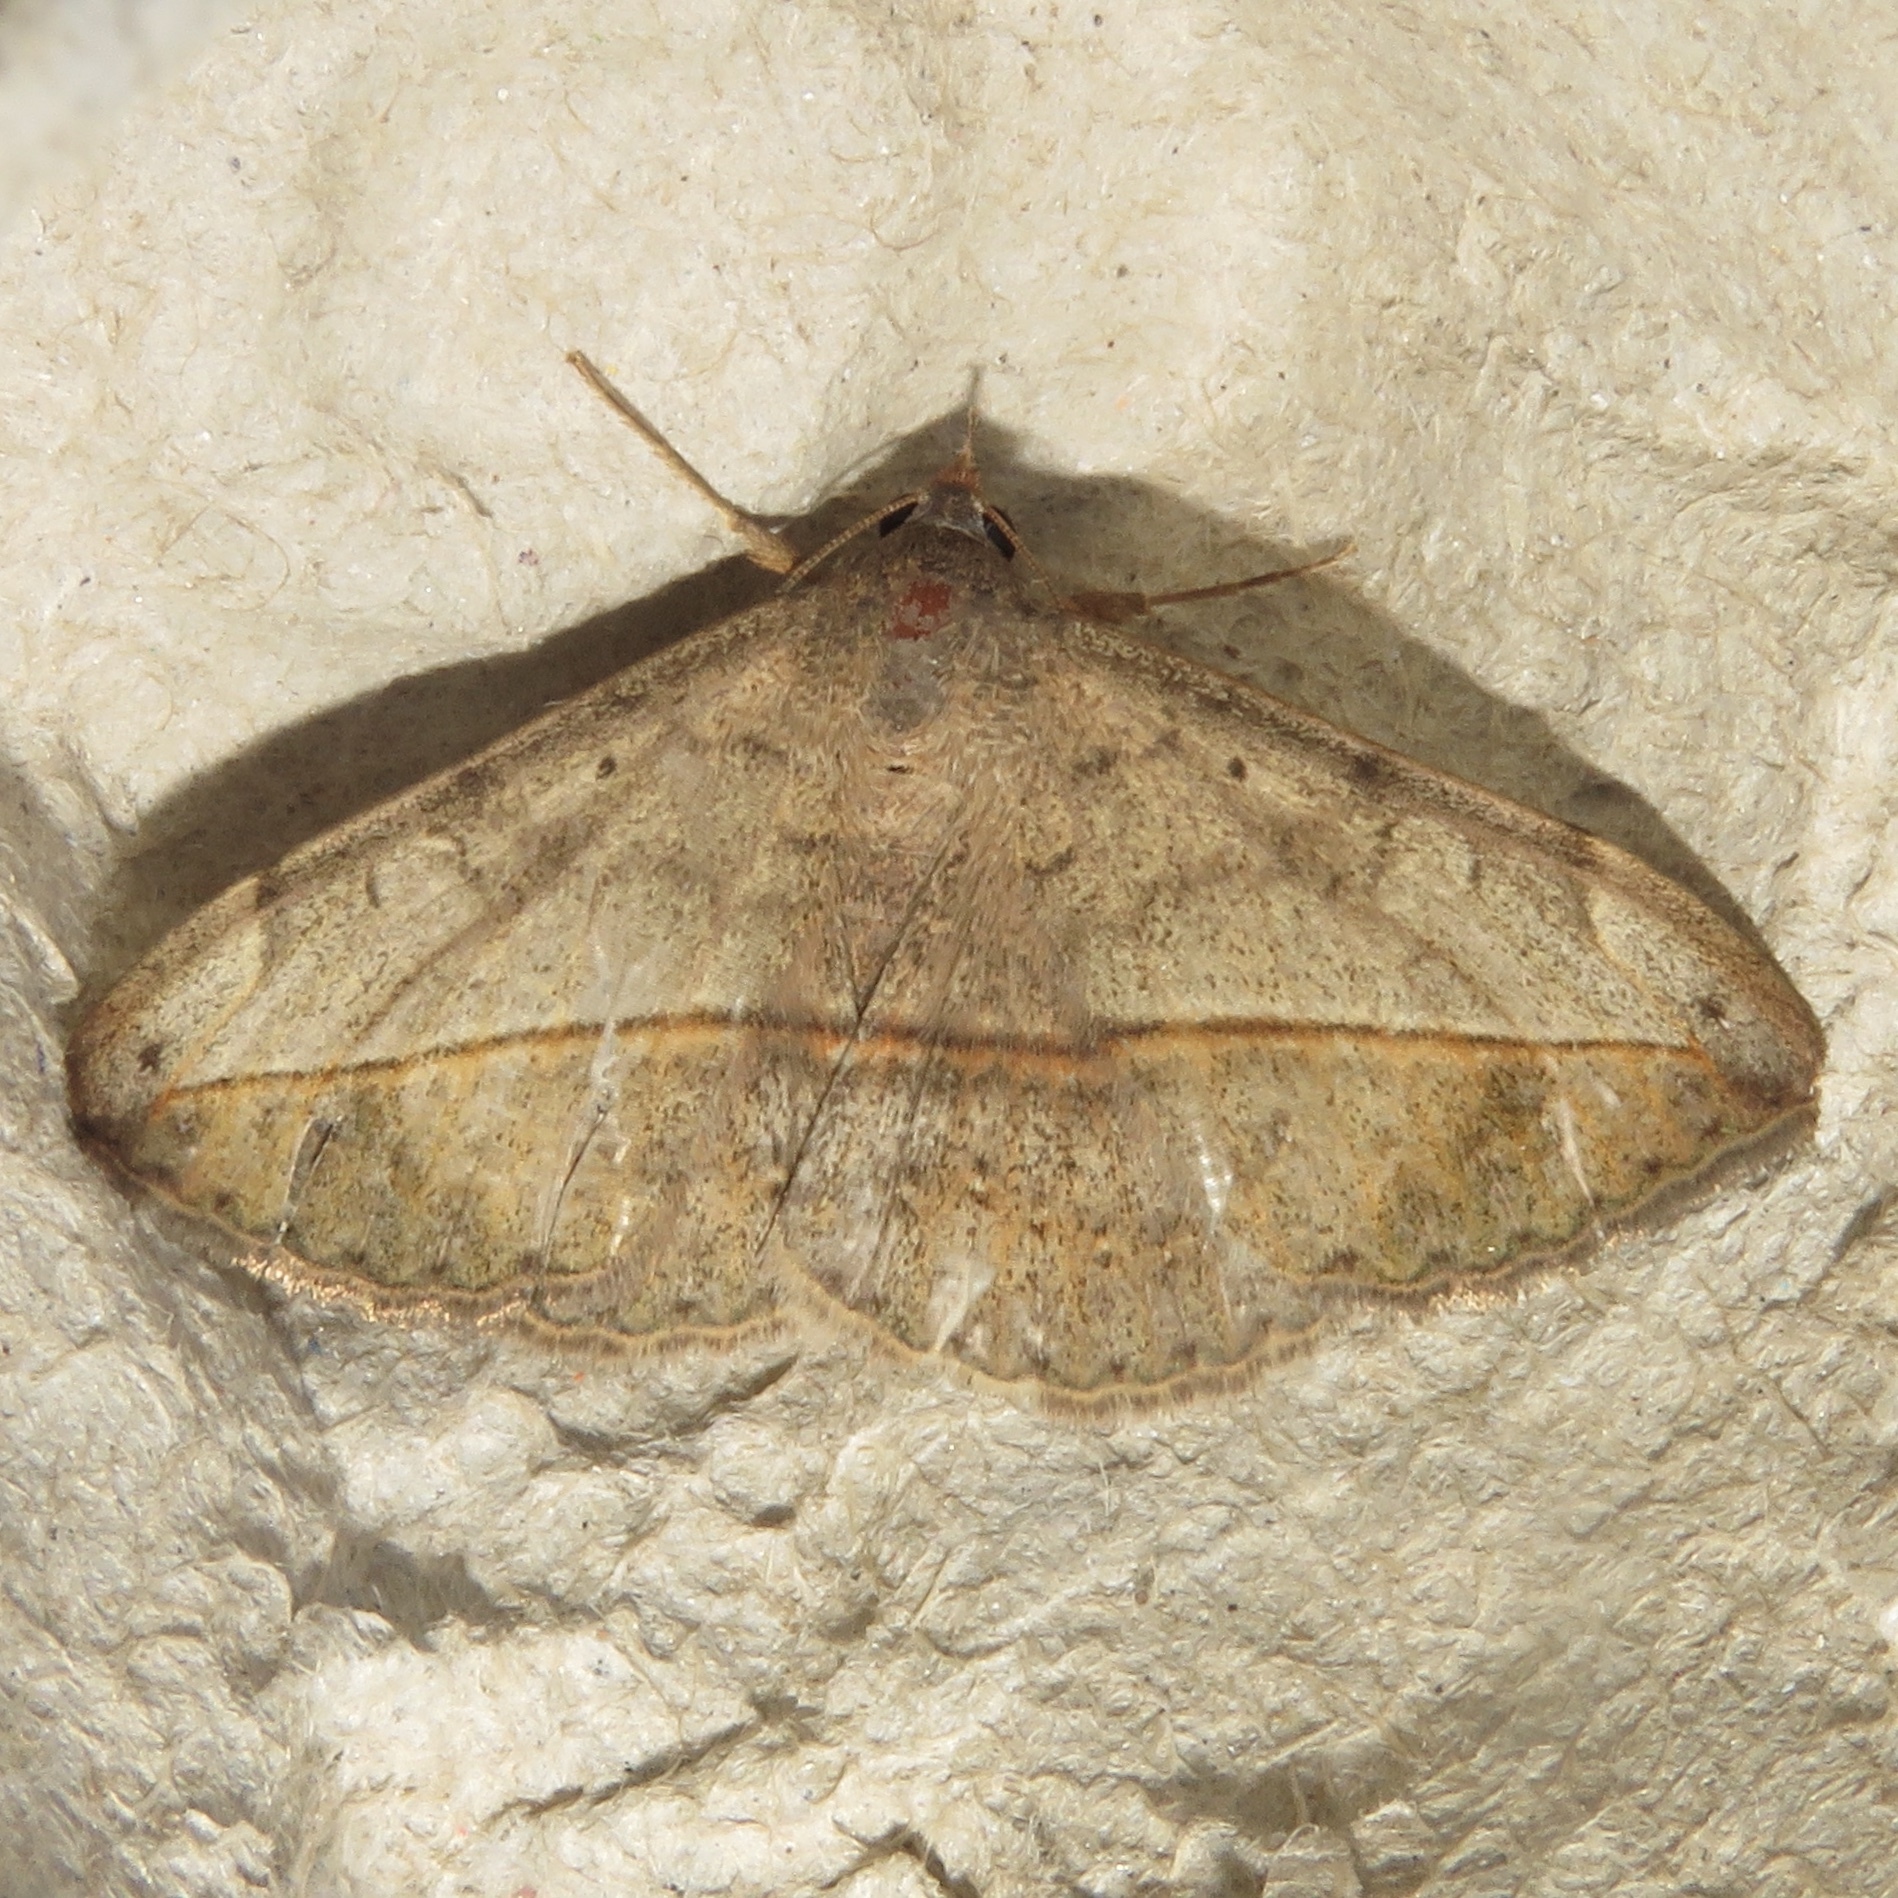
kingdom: Animalia
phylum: Arthropoda
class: Insecta
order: Lepidoptera
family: Erebidae
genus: Anticarsia
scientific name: Anticarsia gemmatalis
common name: Cutworm moth
